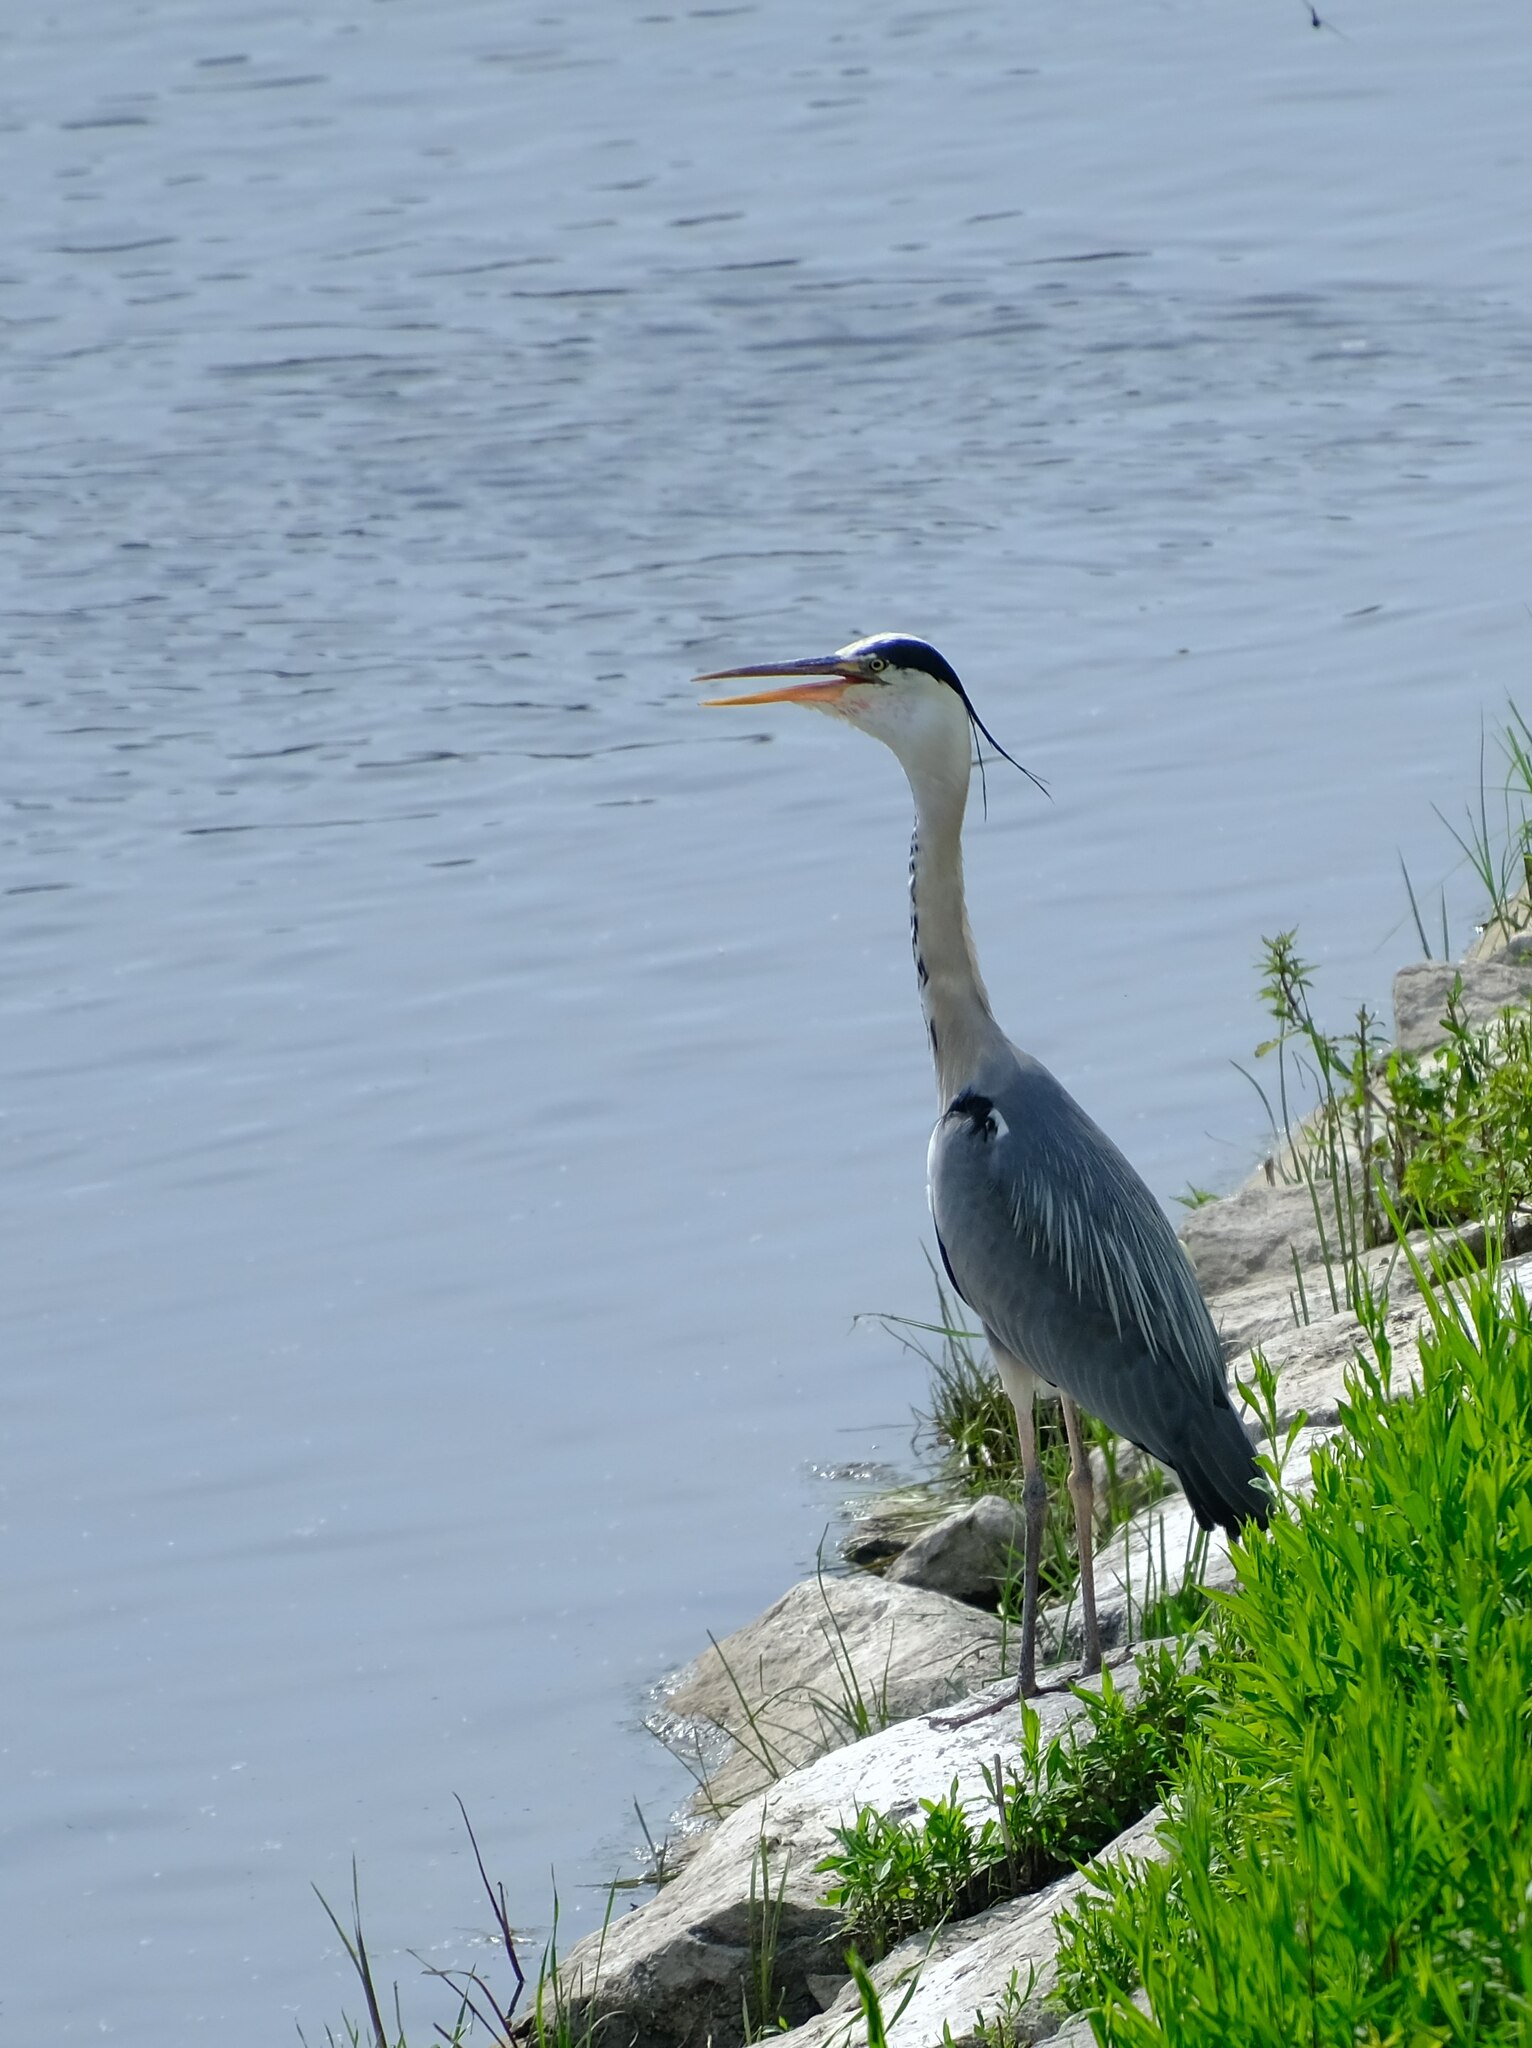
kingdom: Animalia
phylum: Chordata
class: Aves
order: Pelecaniformes
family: Ardeidae
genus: Ardea
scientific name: Ardea cinerea
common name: Grey heron
